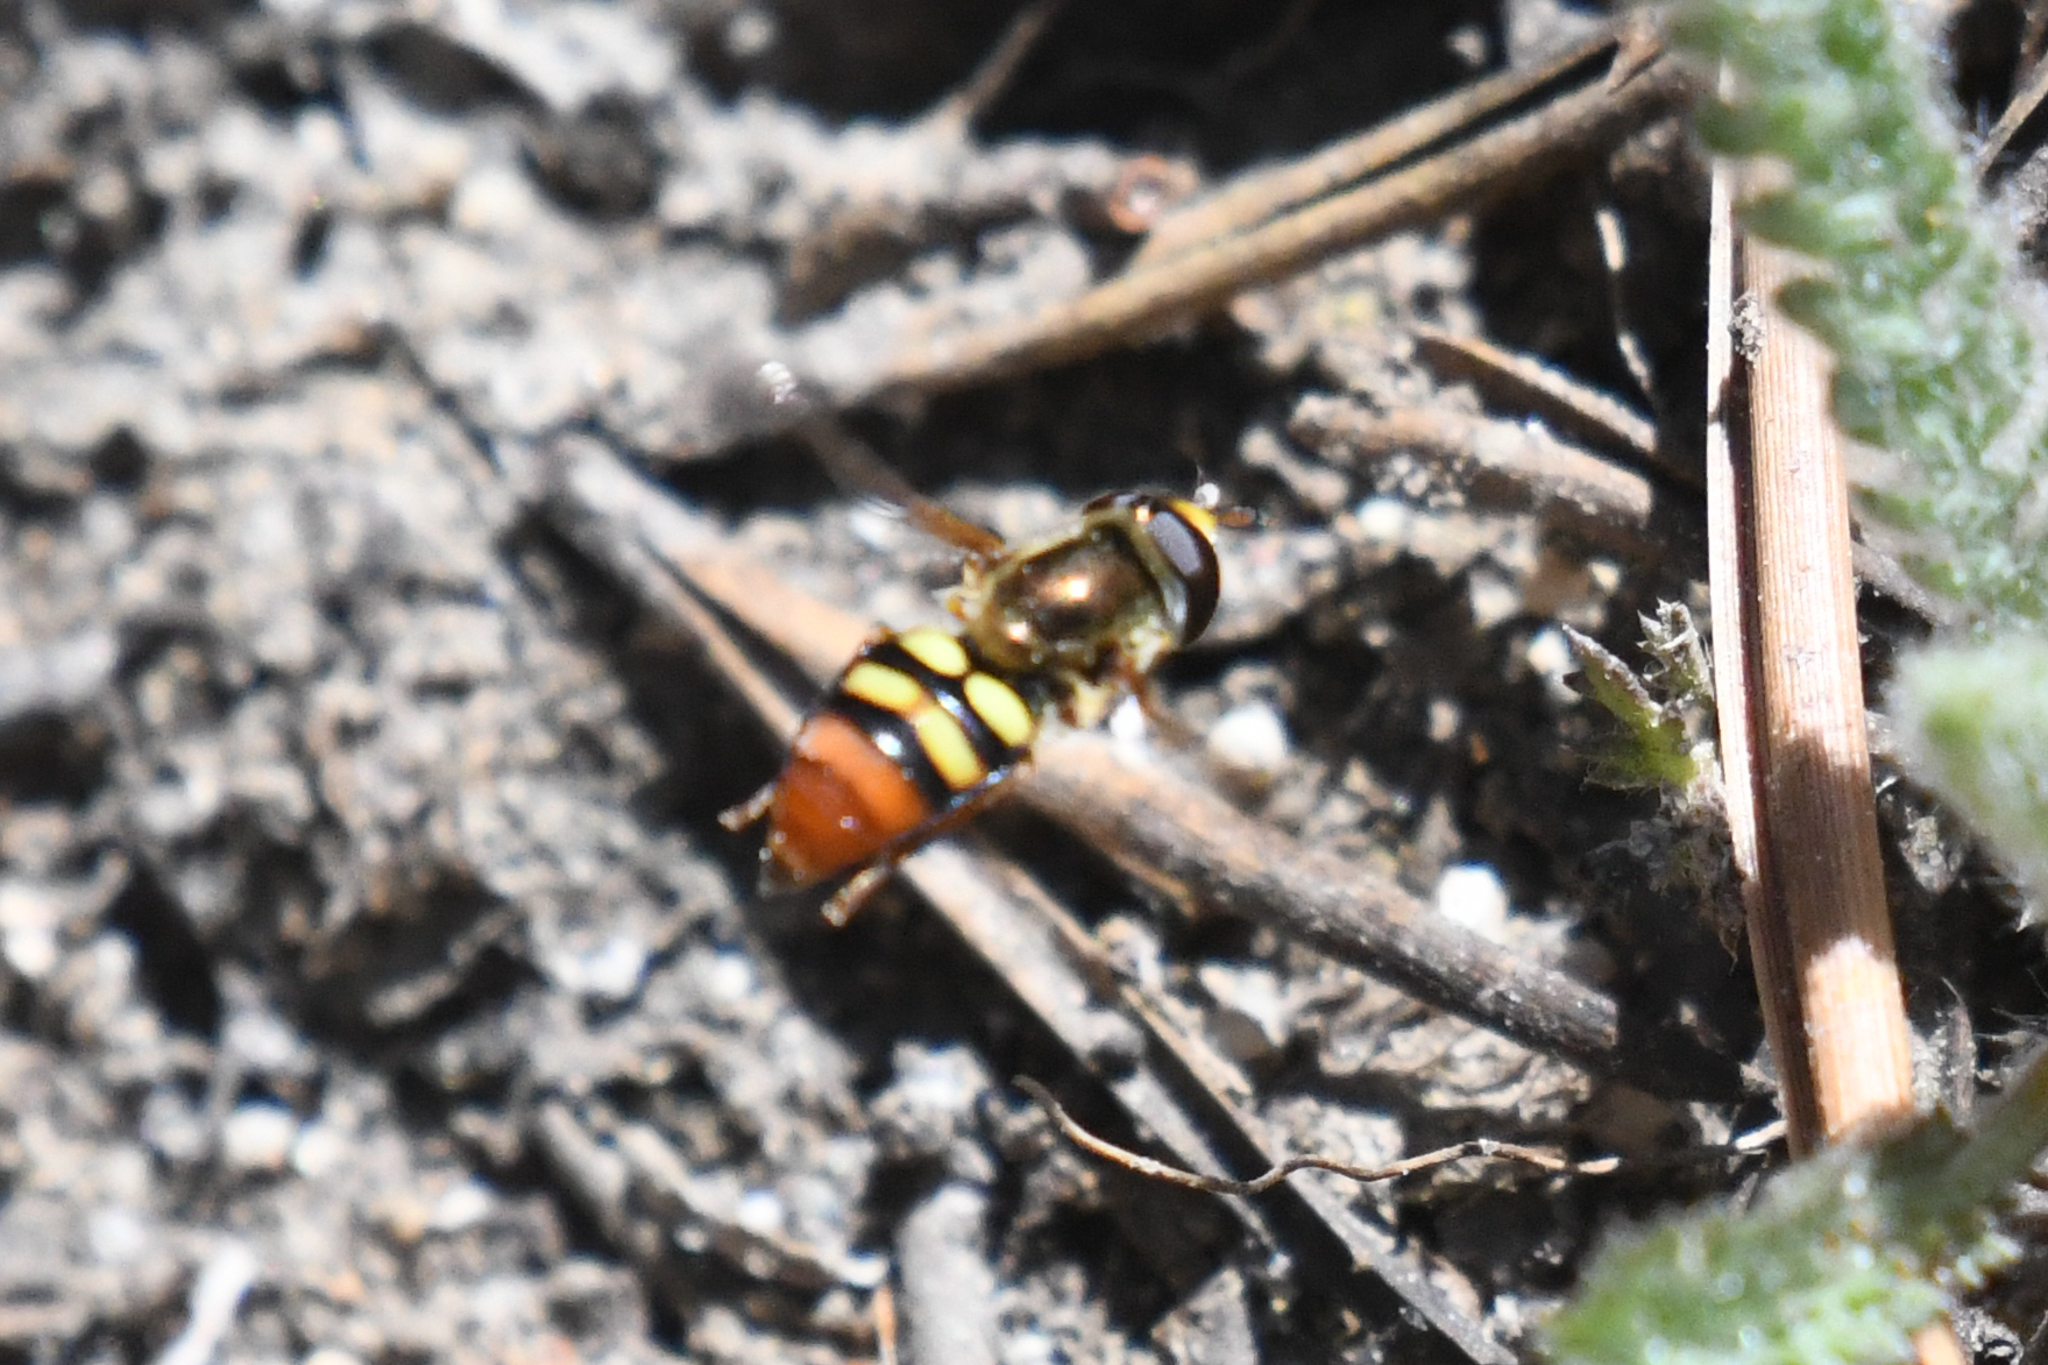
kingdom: Animalia
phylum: Arthropoda
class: Insecta
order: Diptera
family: Syrphidae
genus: Eupeodes
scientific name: Eupeodes snowi
